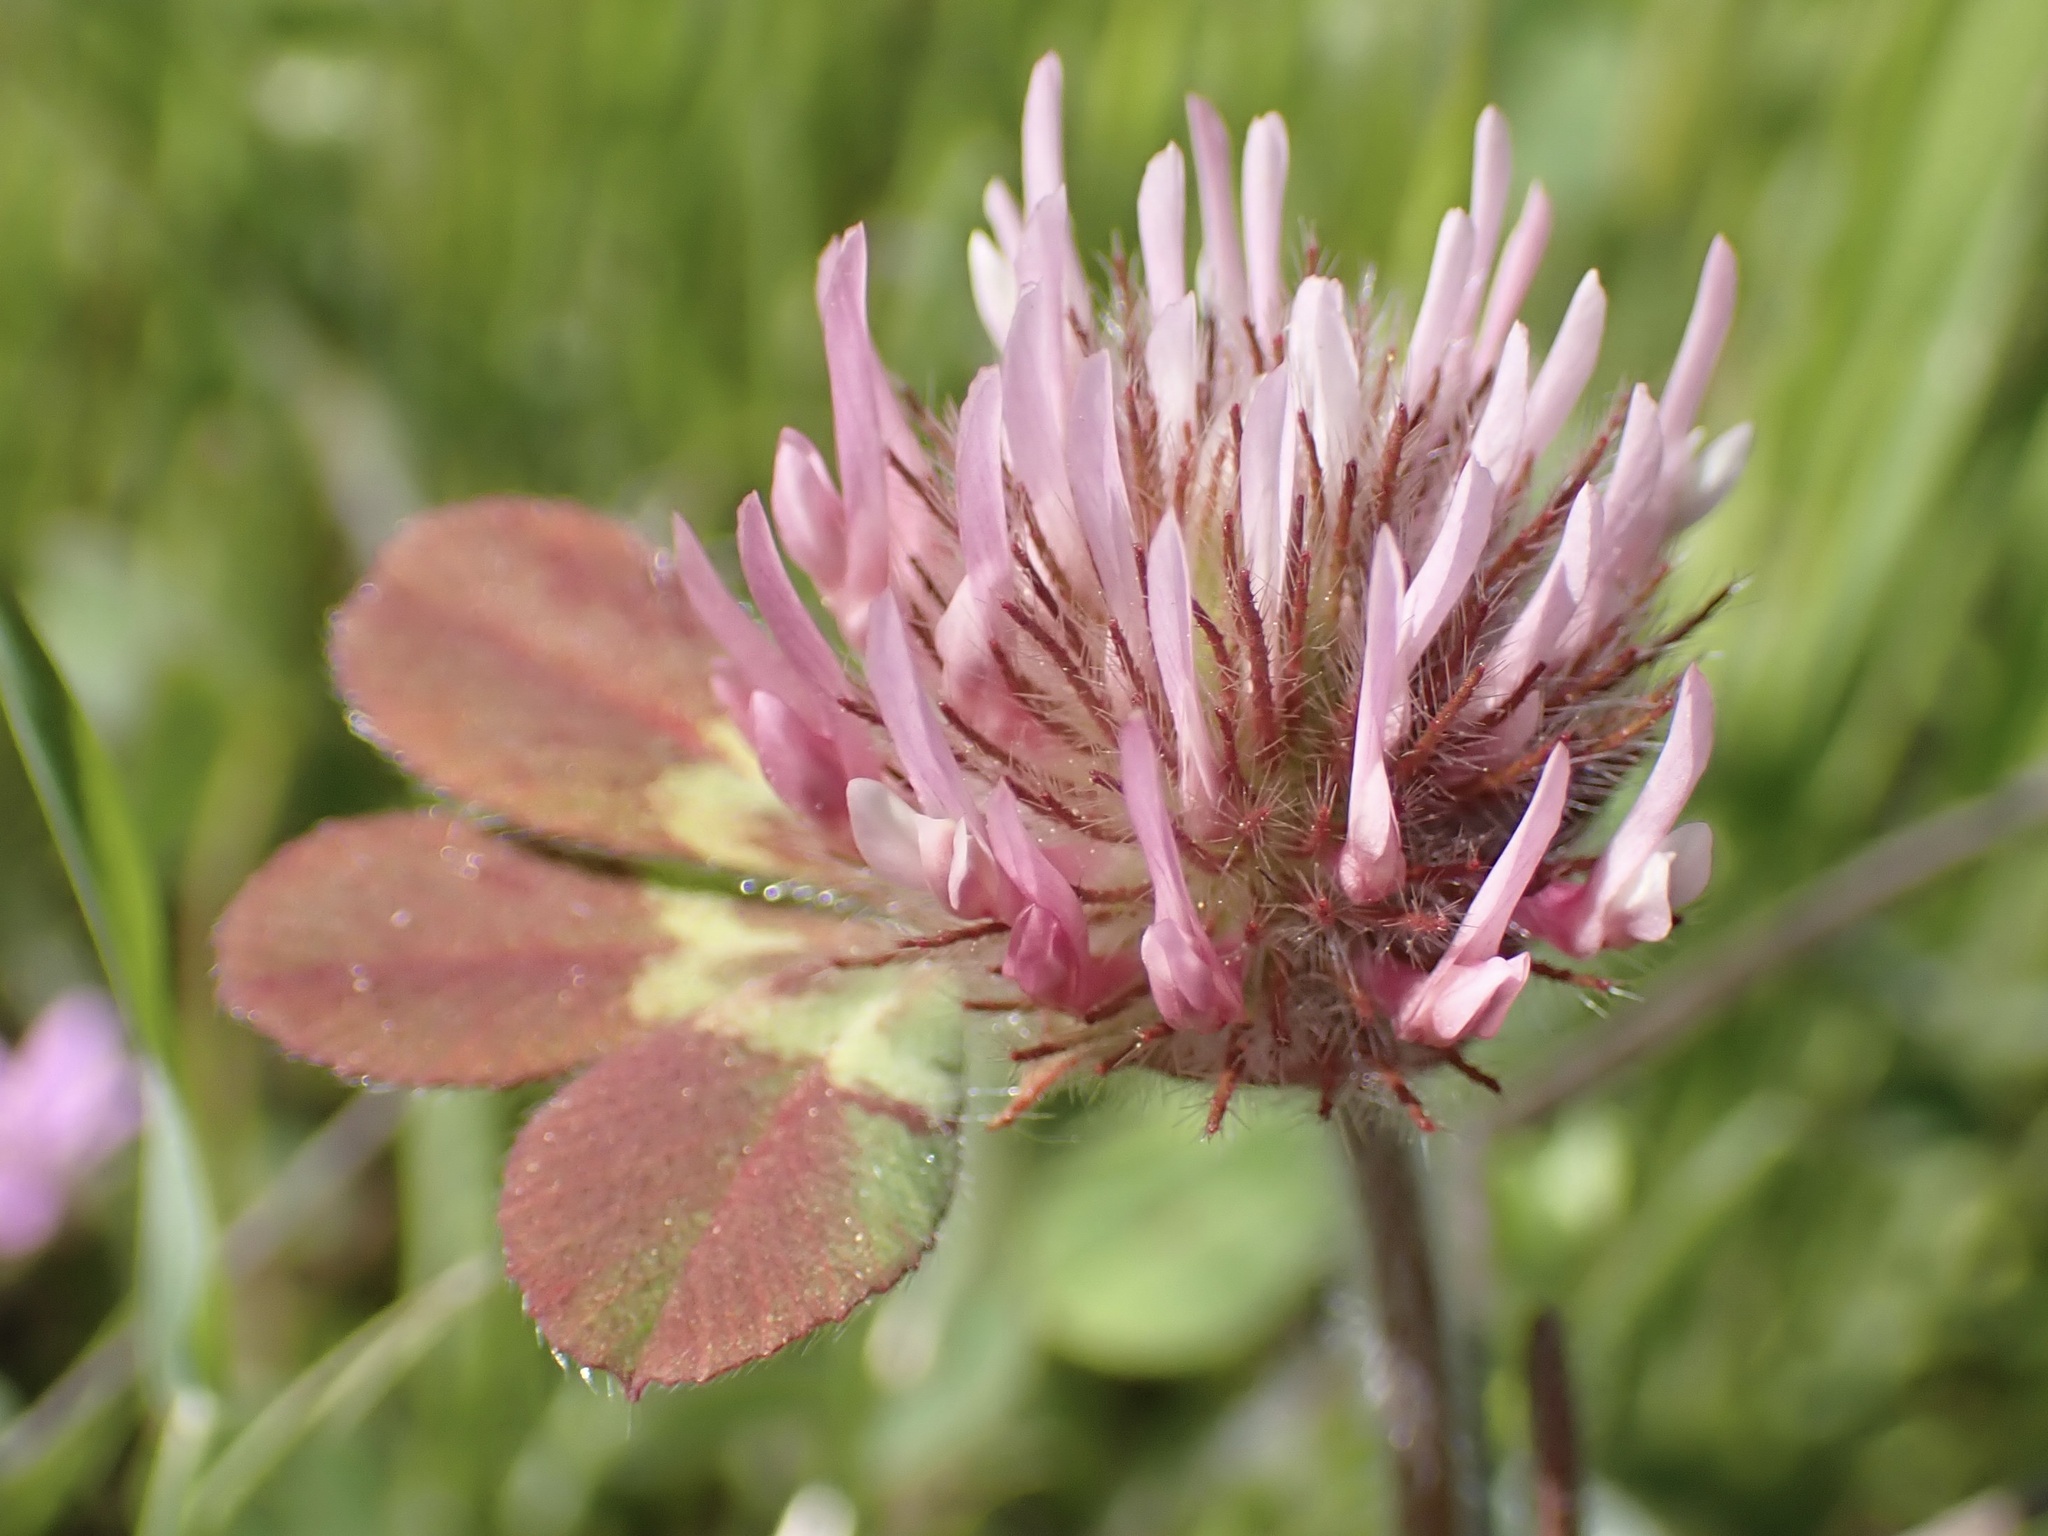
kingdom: Plantae
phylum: Tracheophyta
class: Magnoliopsida
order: Fabales
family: Fabaceae
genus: Trifolium
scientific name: Trifolium hirtum
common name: Rose clover
